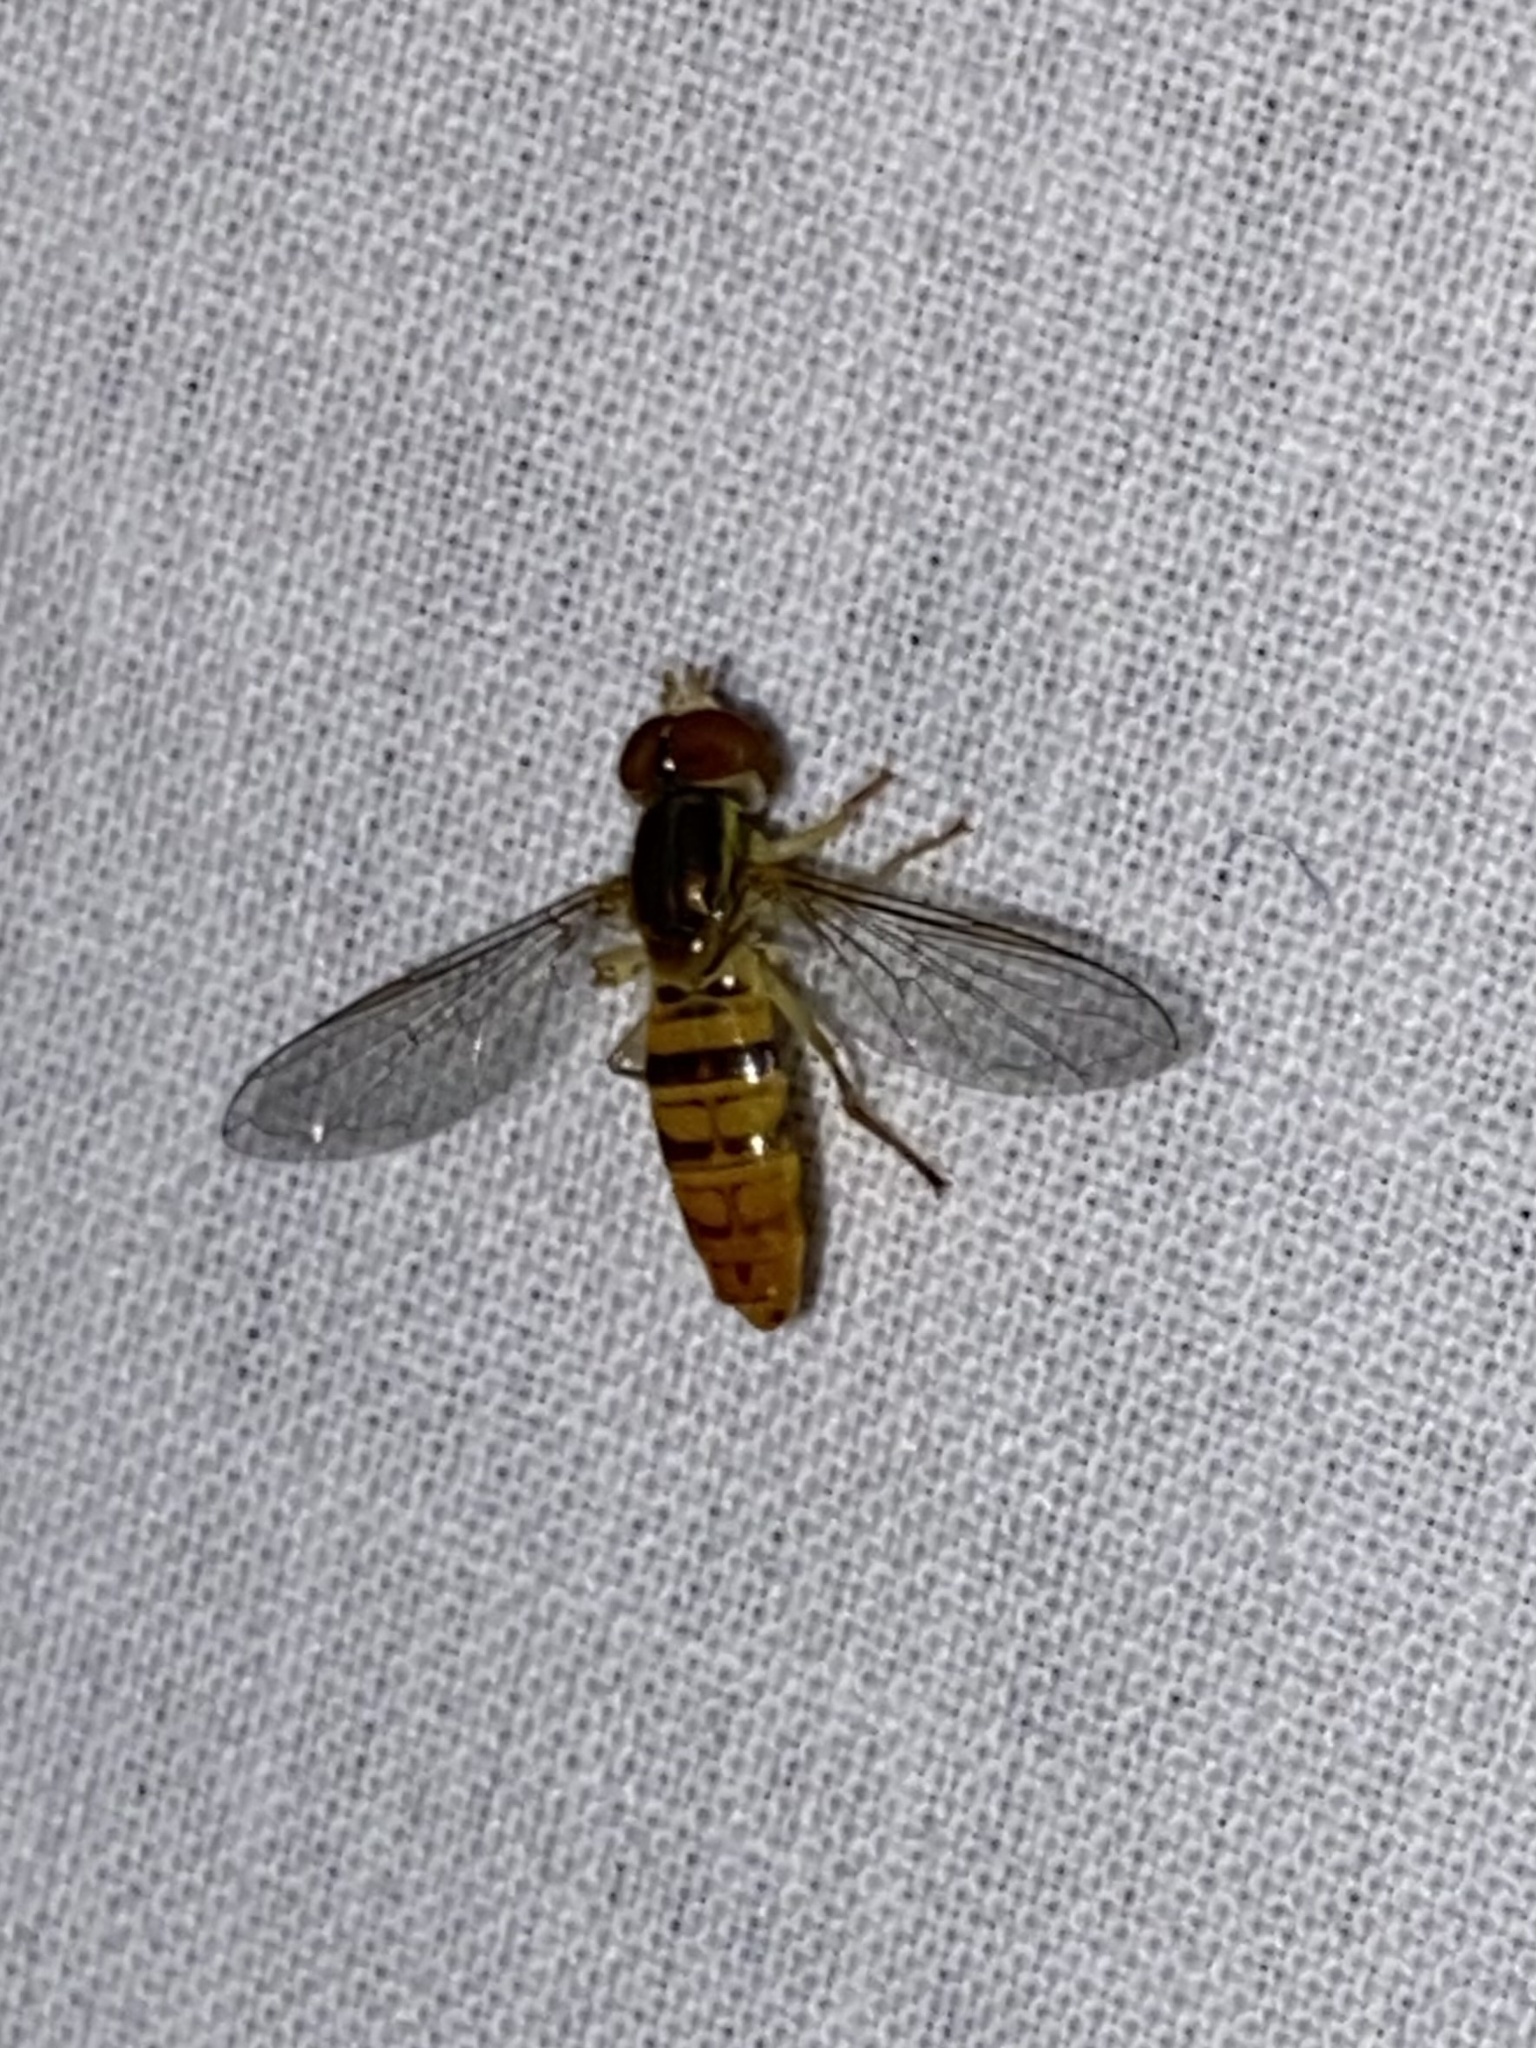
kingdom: Animalia
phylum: Arthropoda
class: Insecta
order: Diptera
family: Syrphidae
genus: Toxomerus
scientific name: Toxomerus politus
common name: Maize calligrapher
